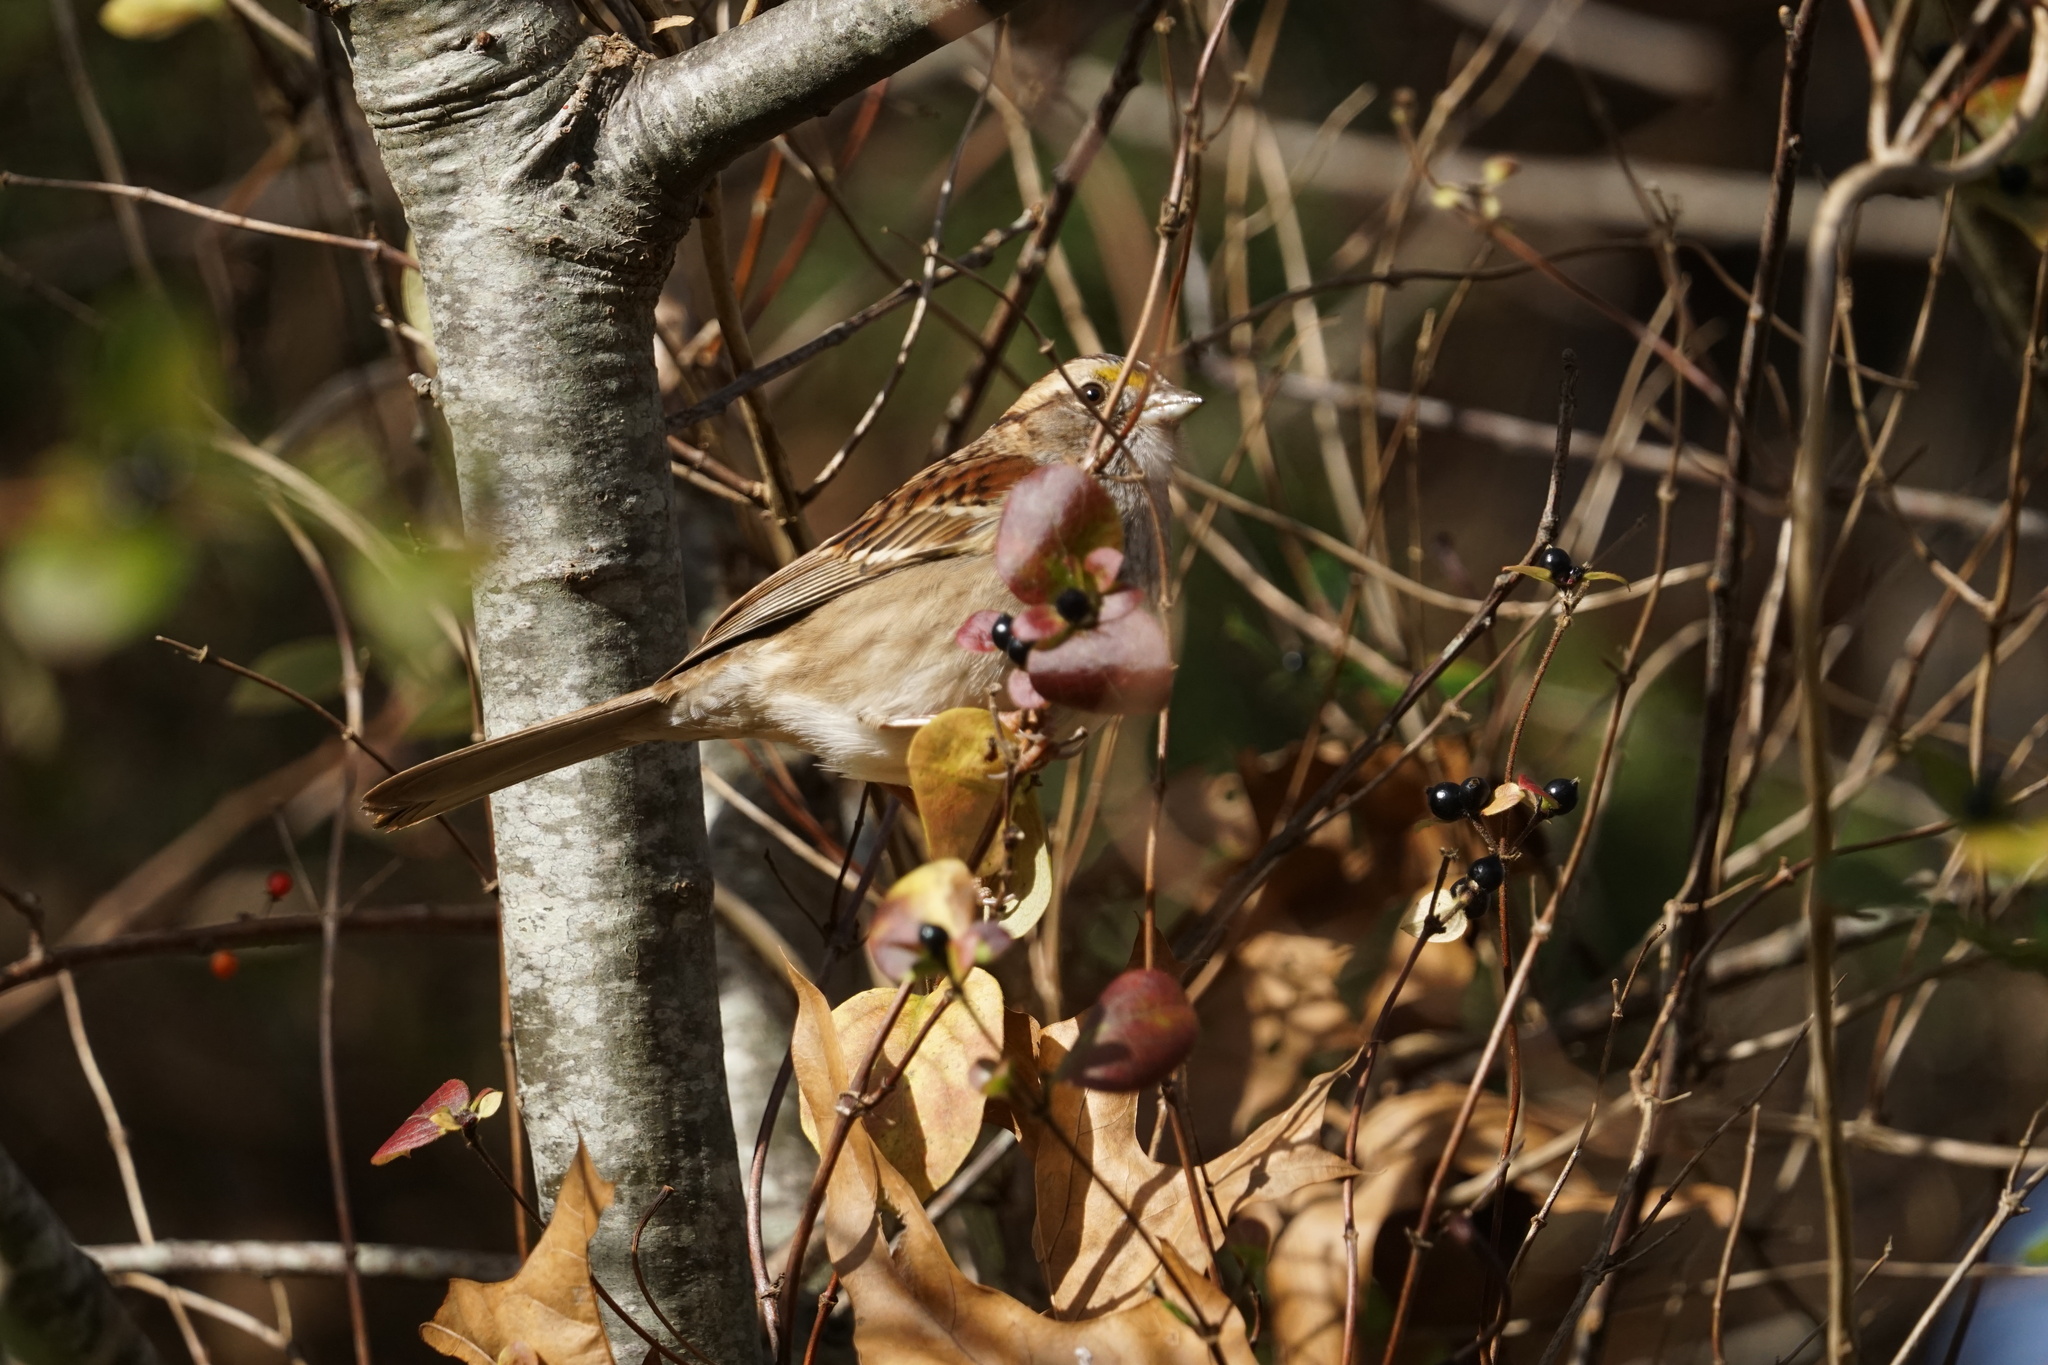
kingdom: Animalia
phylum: Chordata
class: Aves
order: Passeriformes
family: Passerellidae
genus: Zonotrichia
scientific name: Zonotrichia albicollis
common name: White-throated sparrow
